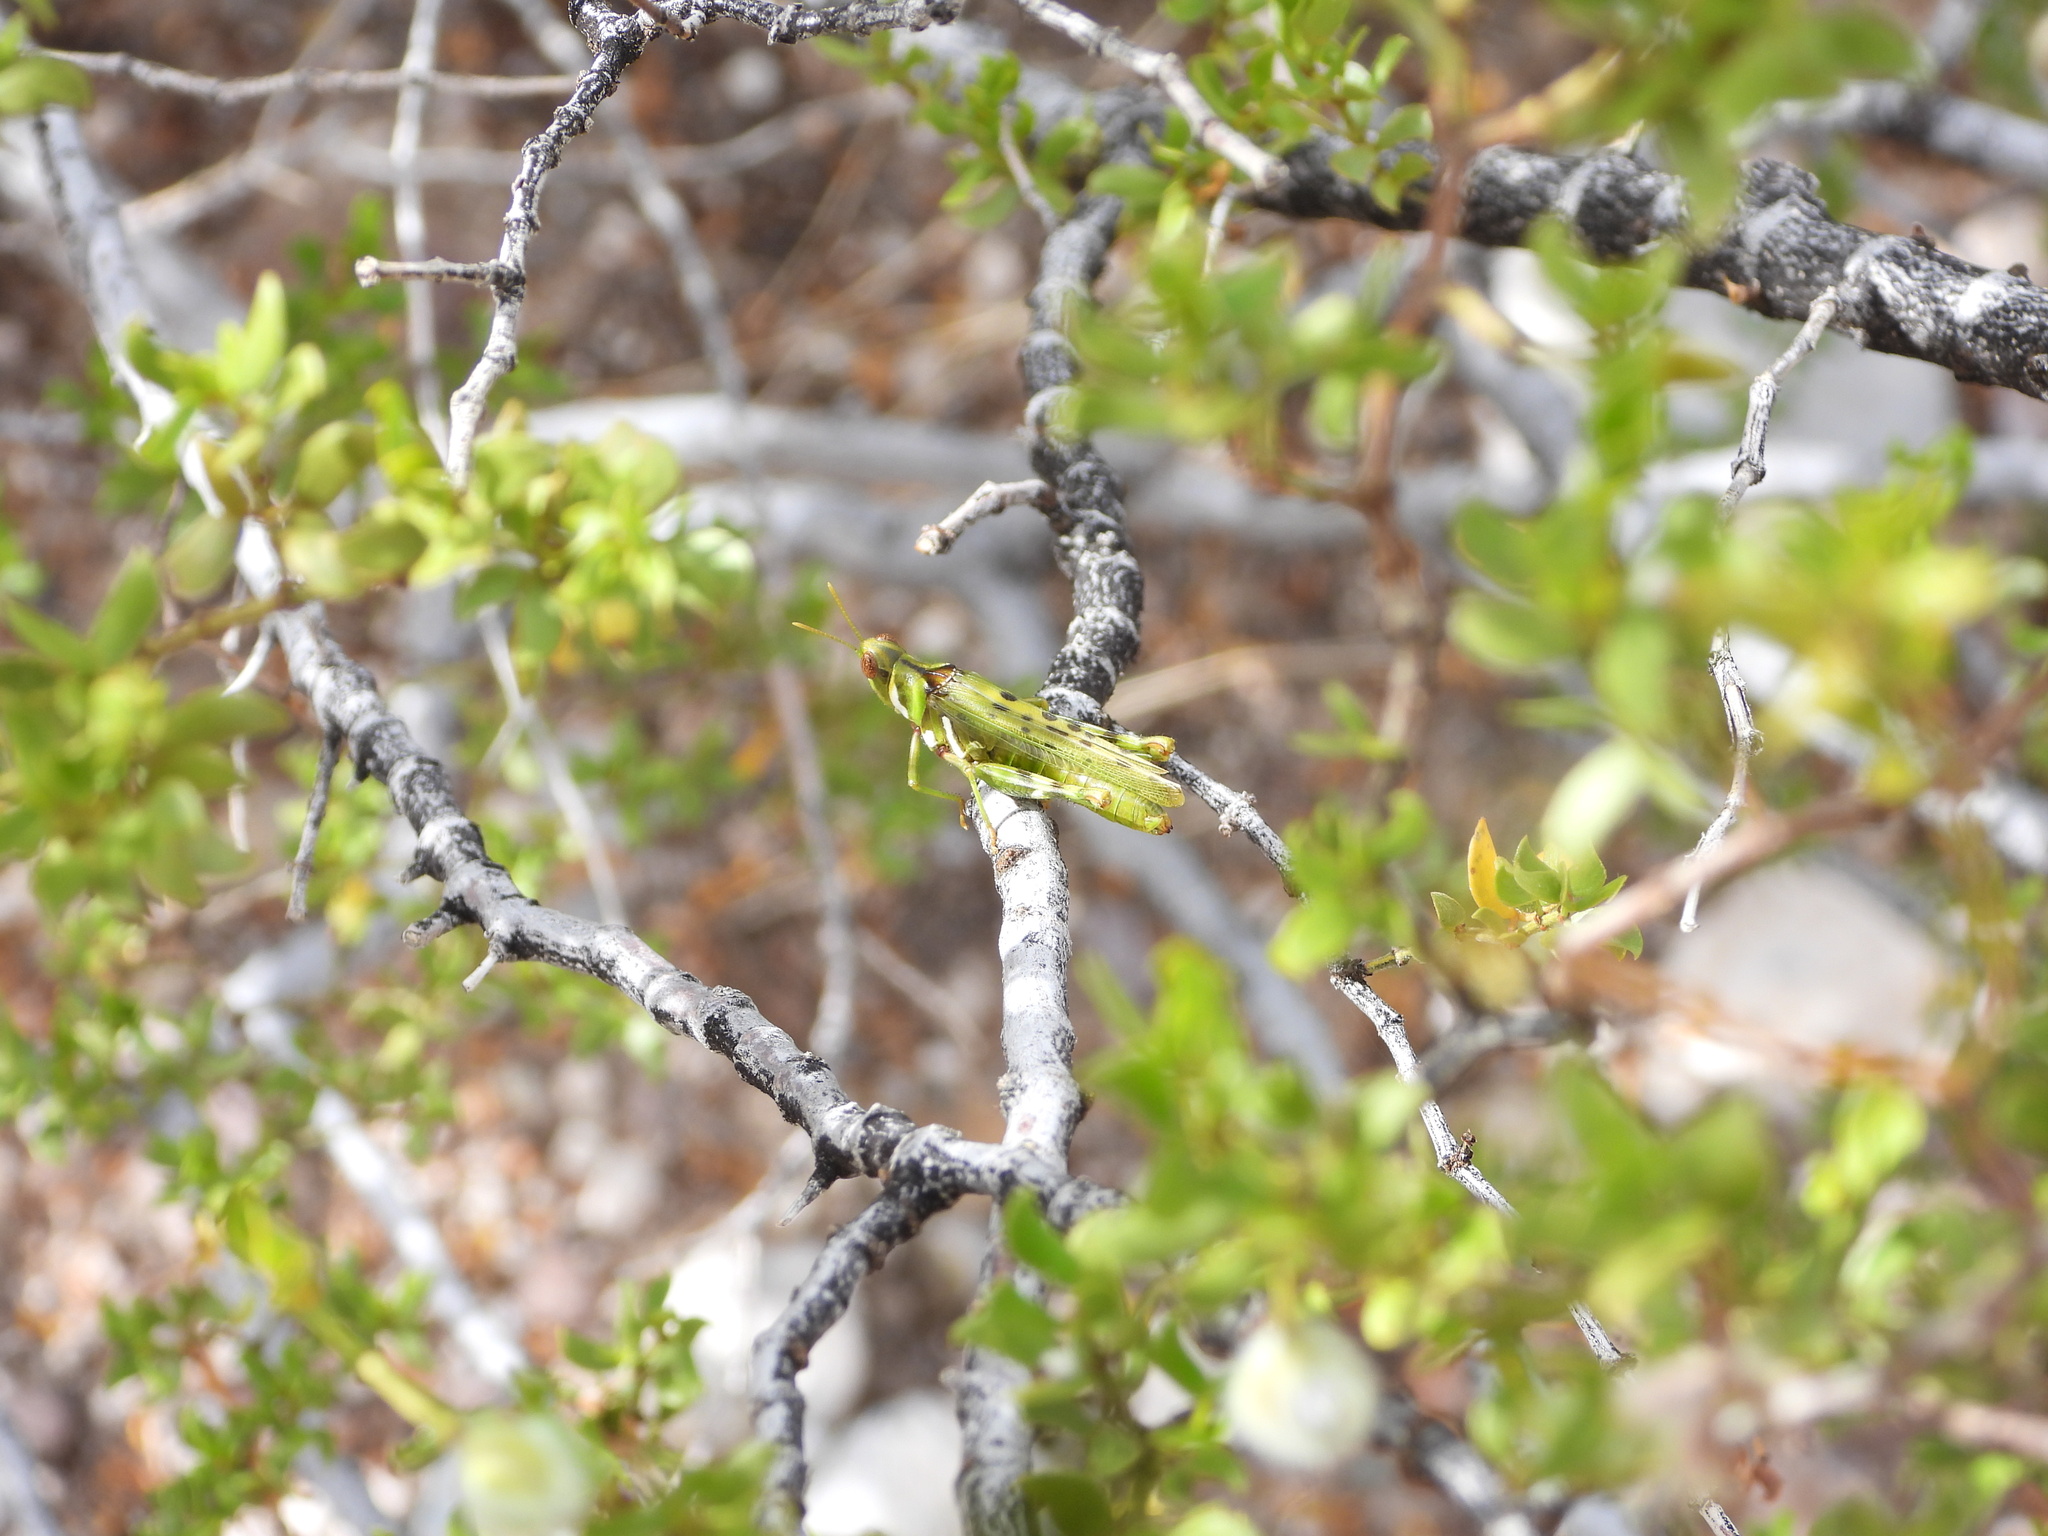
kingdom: Animalia
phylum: Arthropoda
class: Insecta
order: Orthoptera
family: Acrididae
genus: Bootettix
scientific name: Bootettix argentatus
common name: Creosote bush grasshopper
